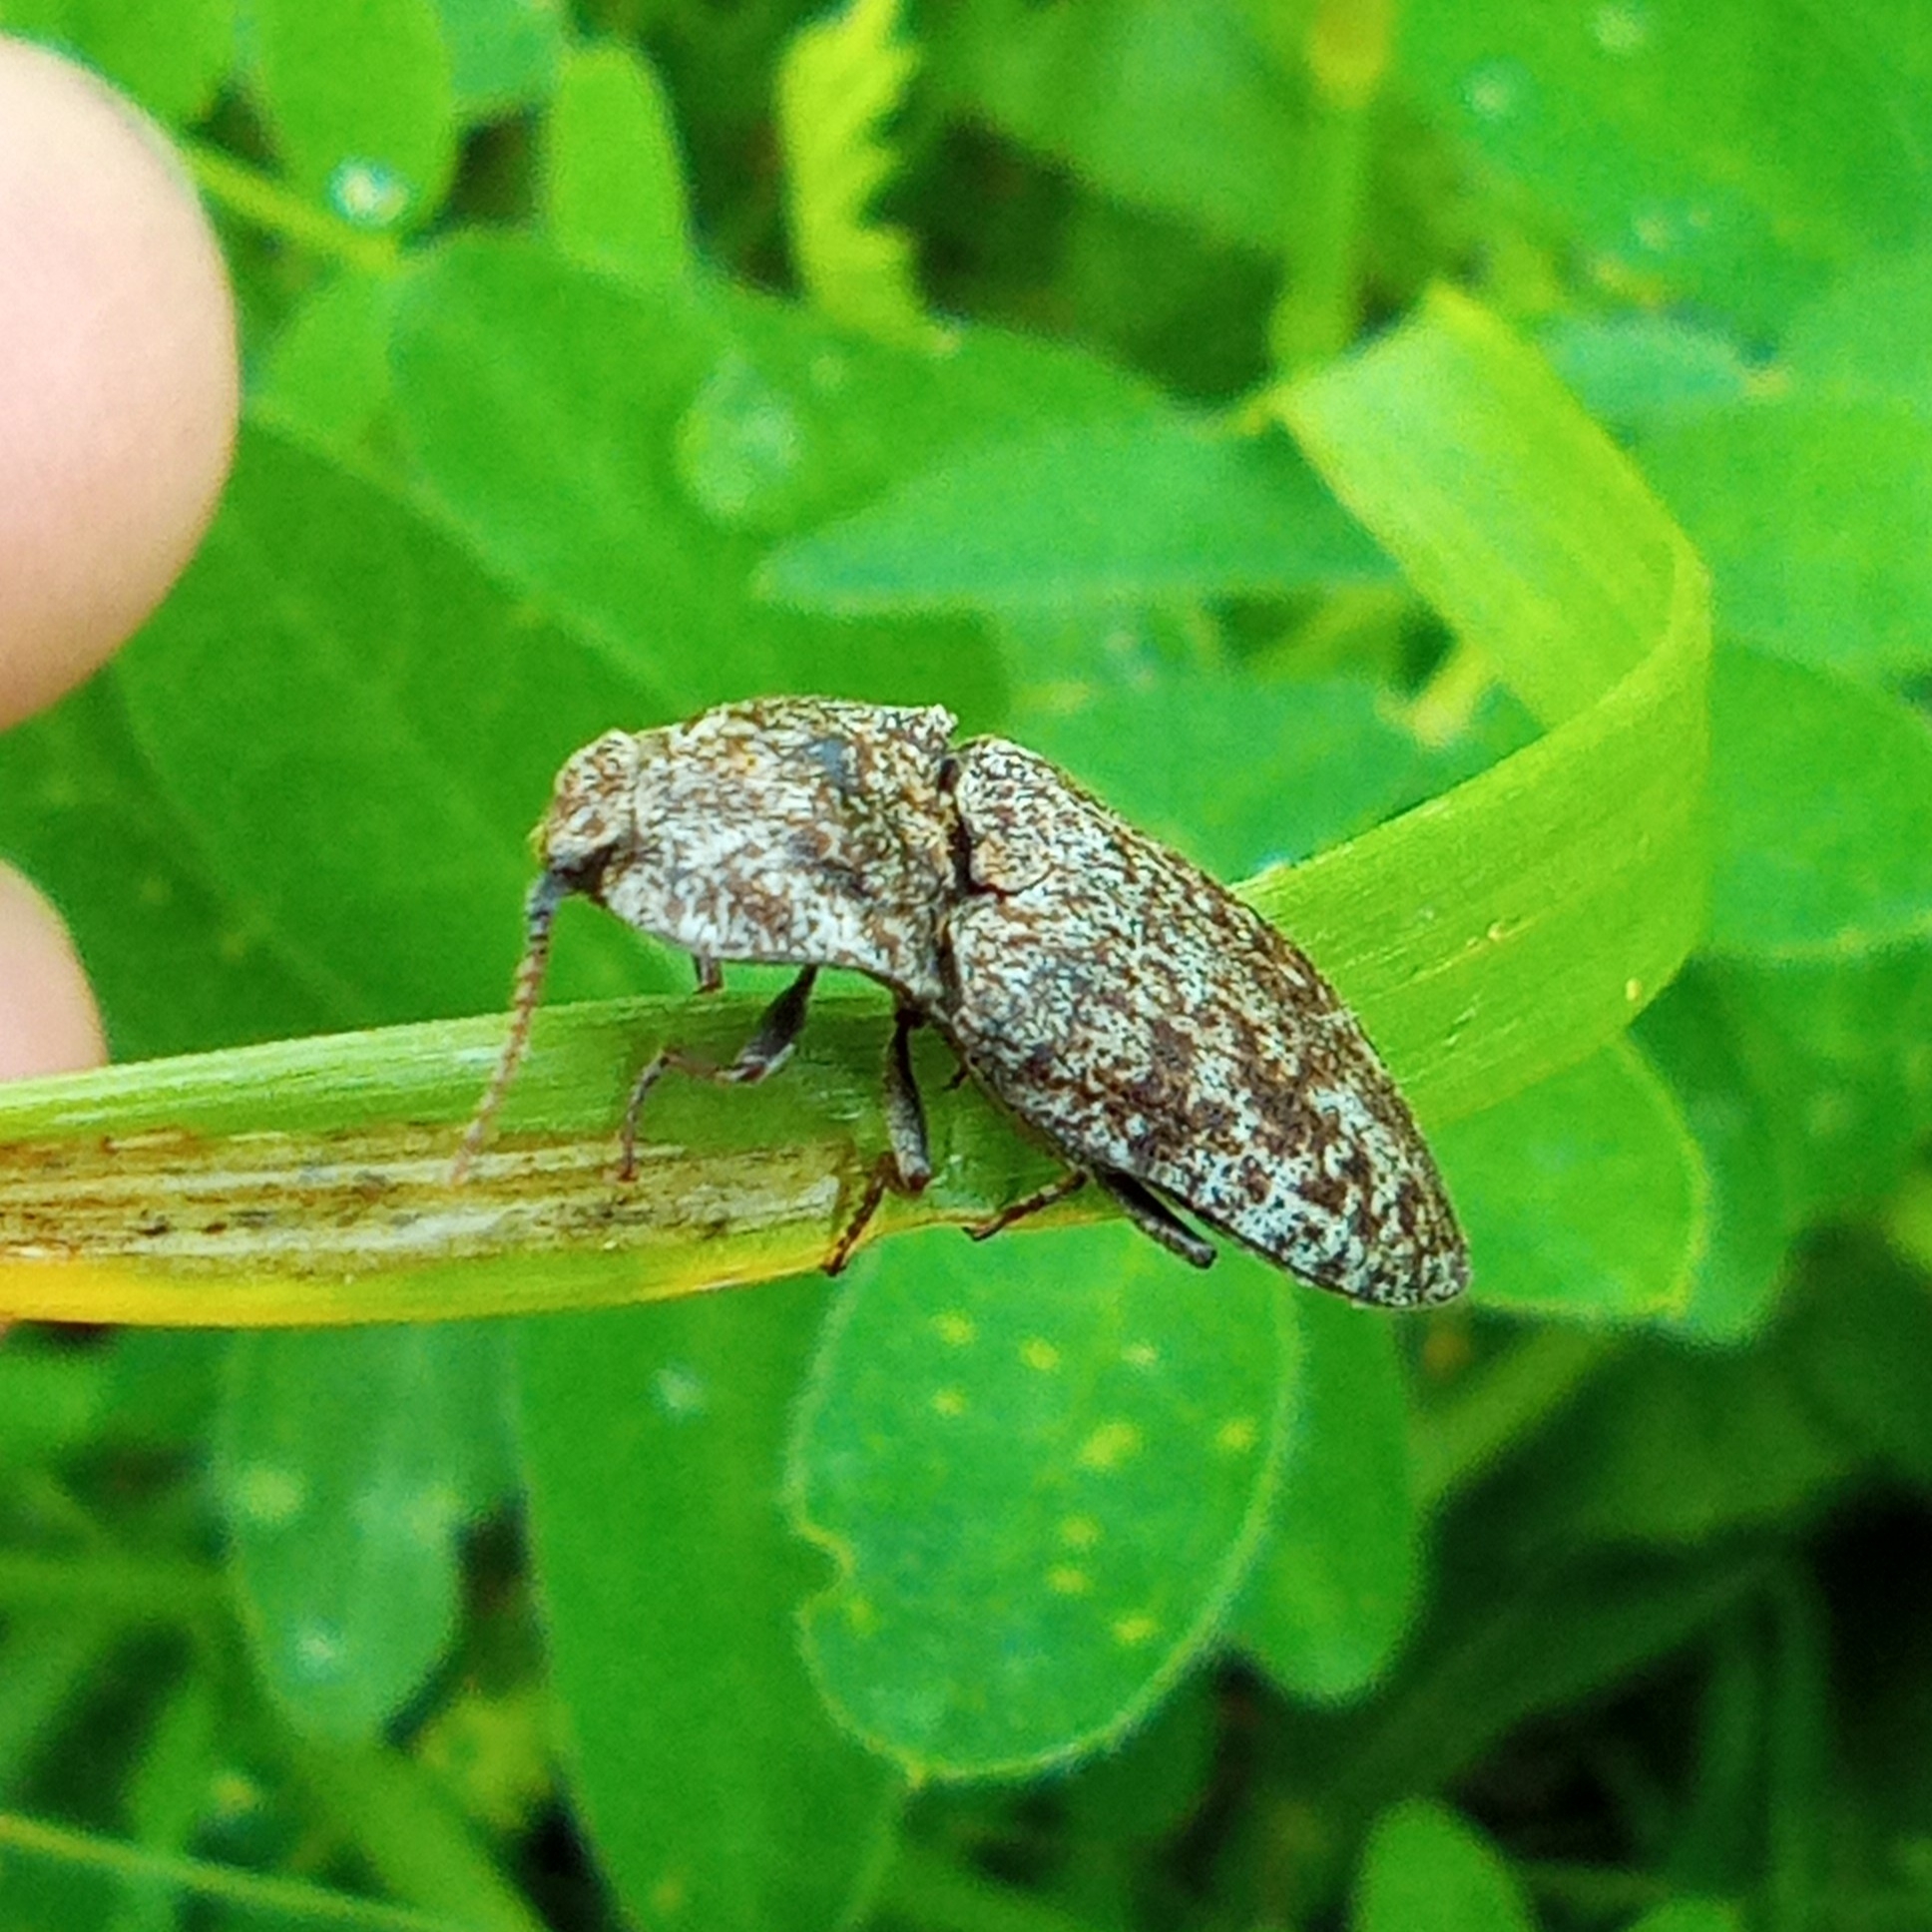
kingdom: Animalia
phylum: Arthropoda
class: Insecta
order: Coleoptera
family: Elateridae
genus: Agrypnus
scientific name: Agrypnus murinus
